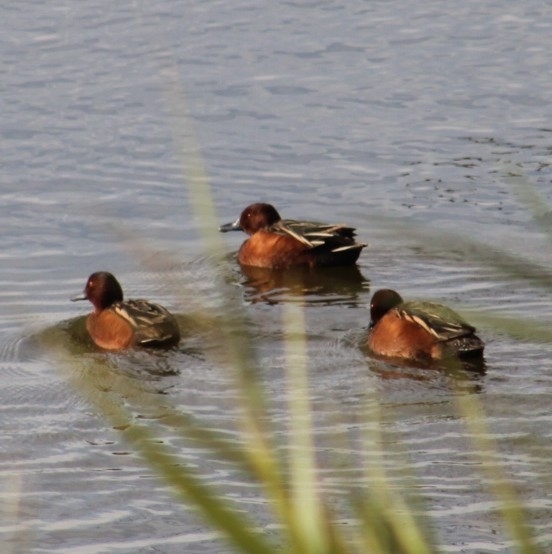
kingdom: Animalia
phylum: Chordata
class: Aves
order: Anseriformes
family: Anatidae
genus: Spatula
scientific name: Spatula cyanoptera
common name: Cinnamon teal
